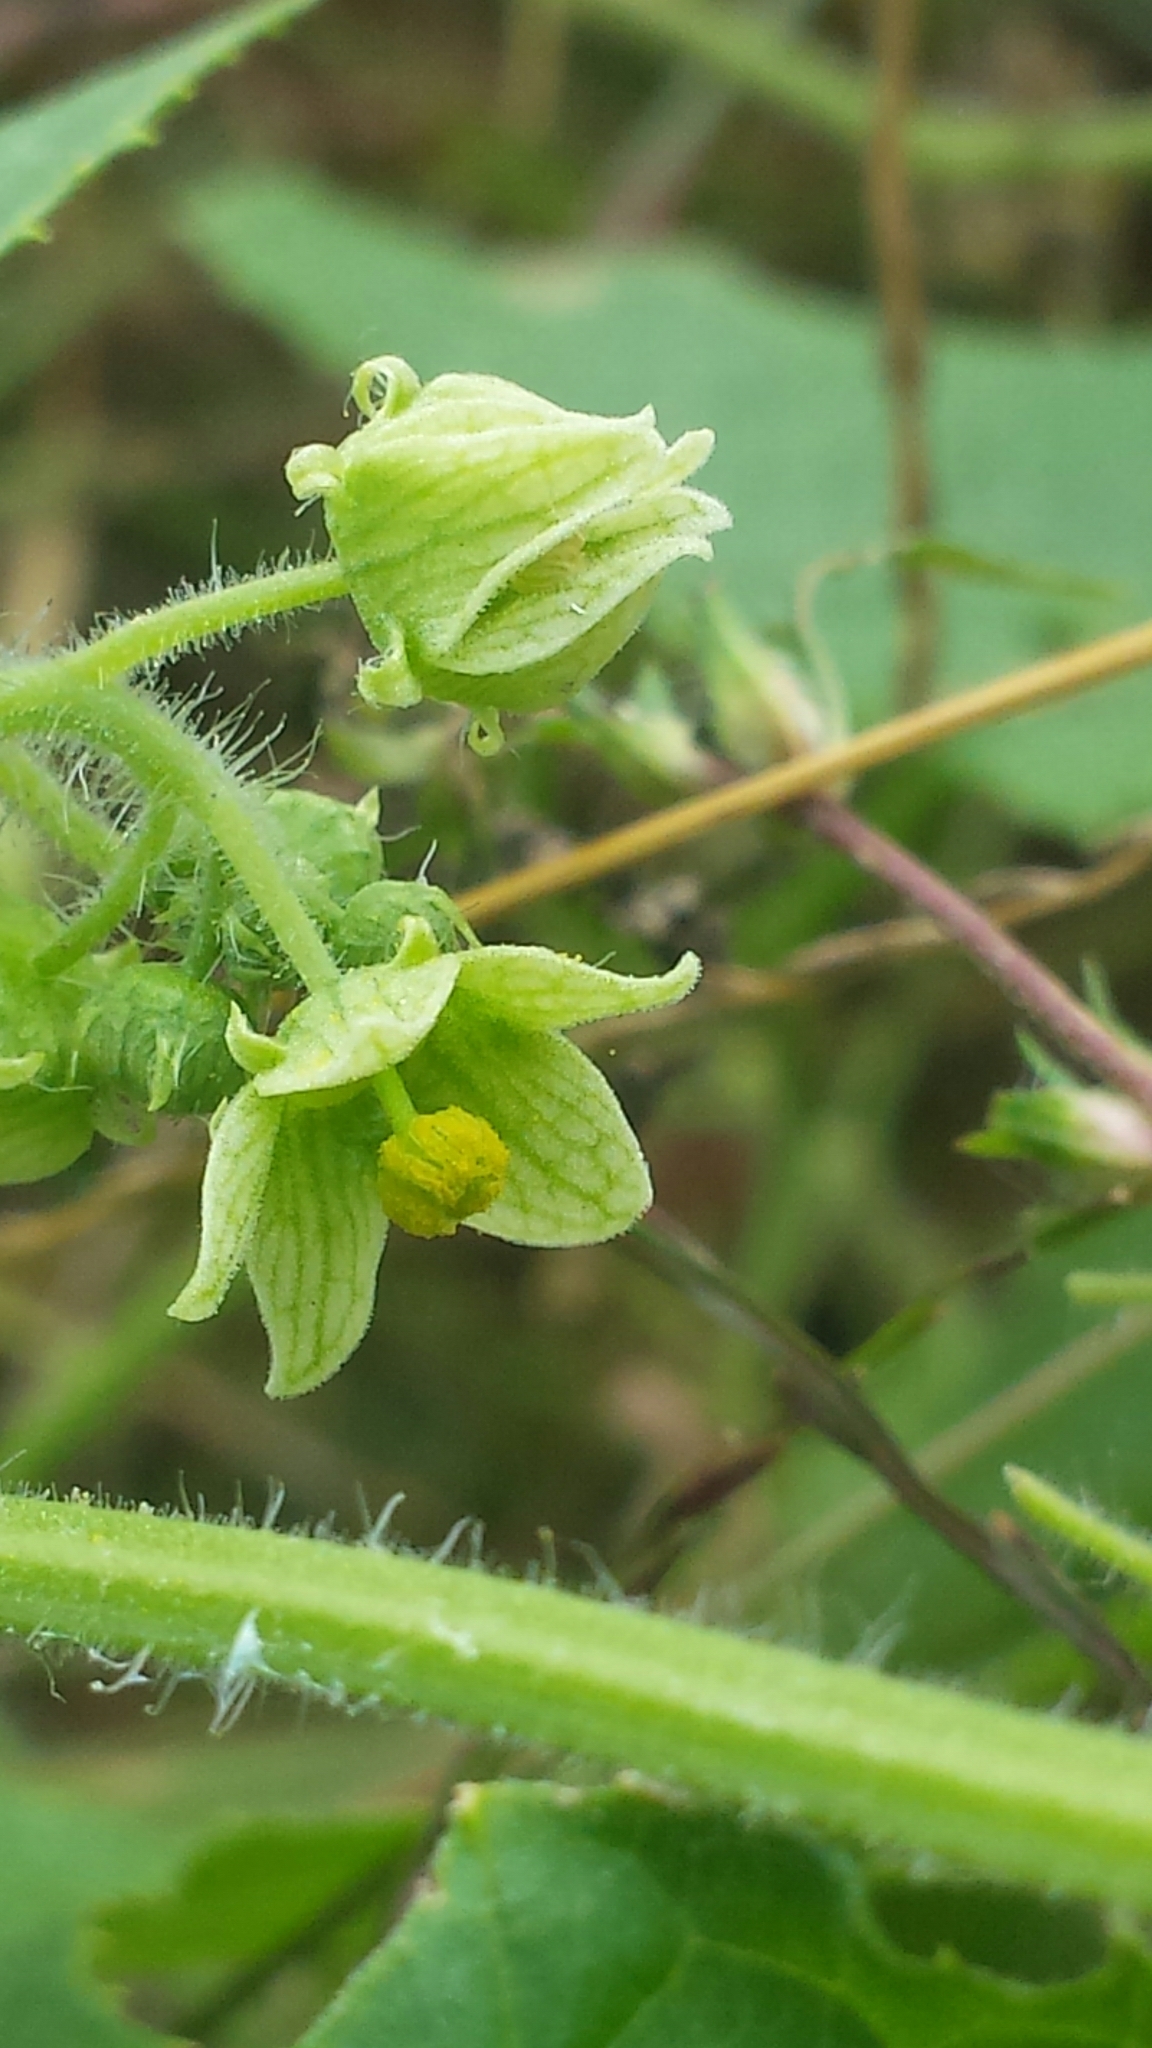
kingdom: Plantae
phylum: Tracheophyta
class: Magnoliopsida
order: Cucurbitales
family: Cucurbitaceae
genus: Sicyos
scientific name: Sicyos angulatus
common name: Angled burr cucumber
